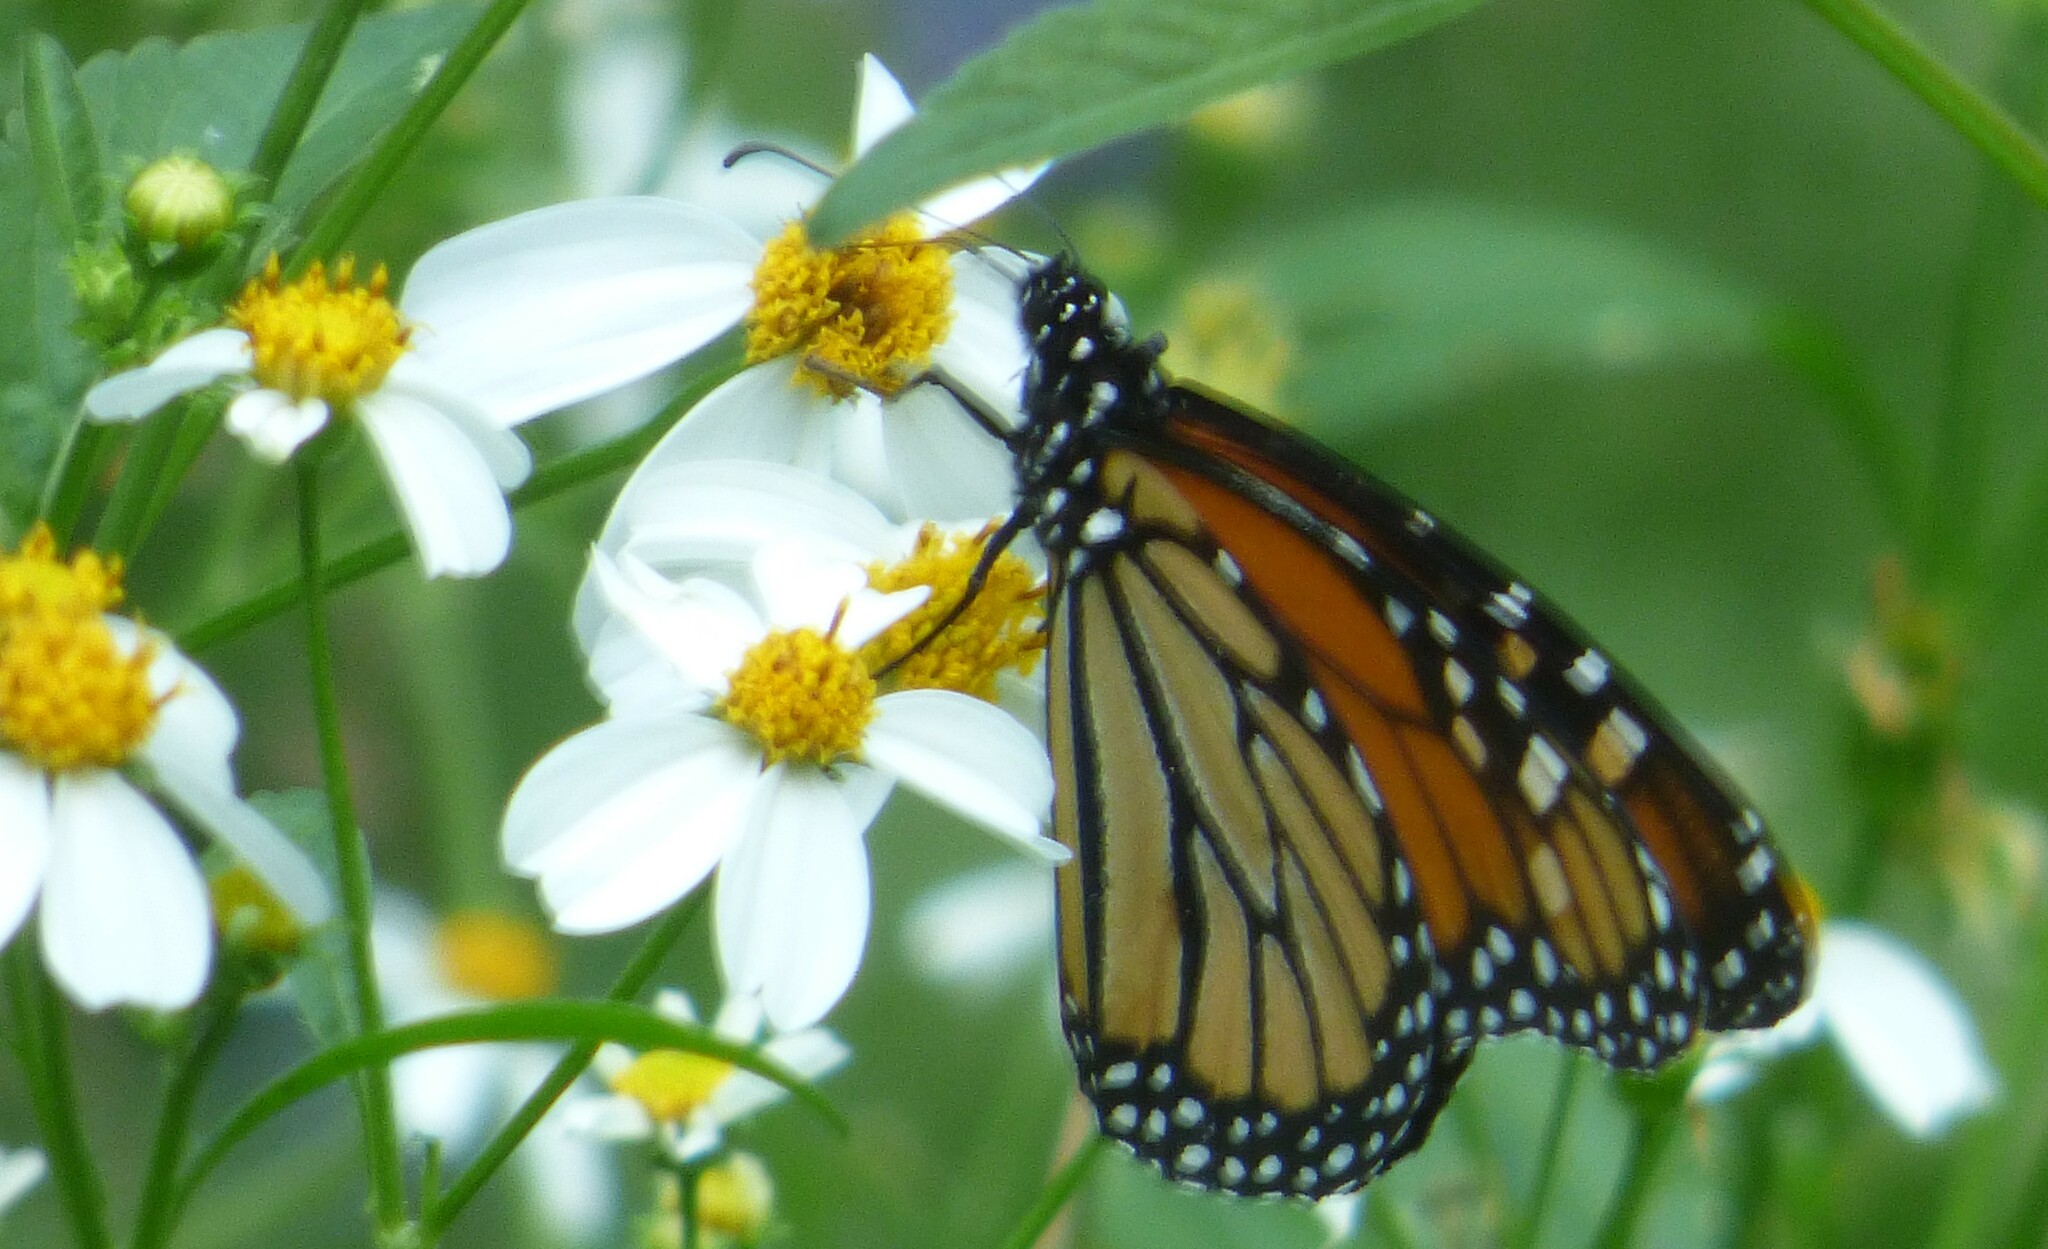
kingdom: Animalia
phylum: Arthropoda
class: Insecta
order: Lepidoptera
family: Nymphalidae
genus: Danaus
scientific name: Danaus plexippus
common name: Monarch
